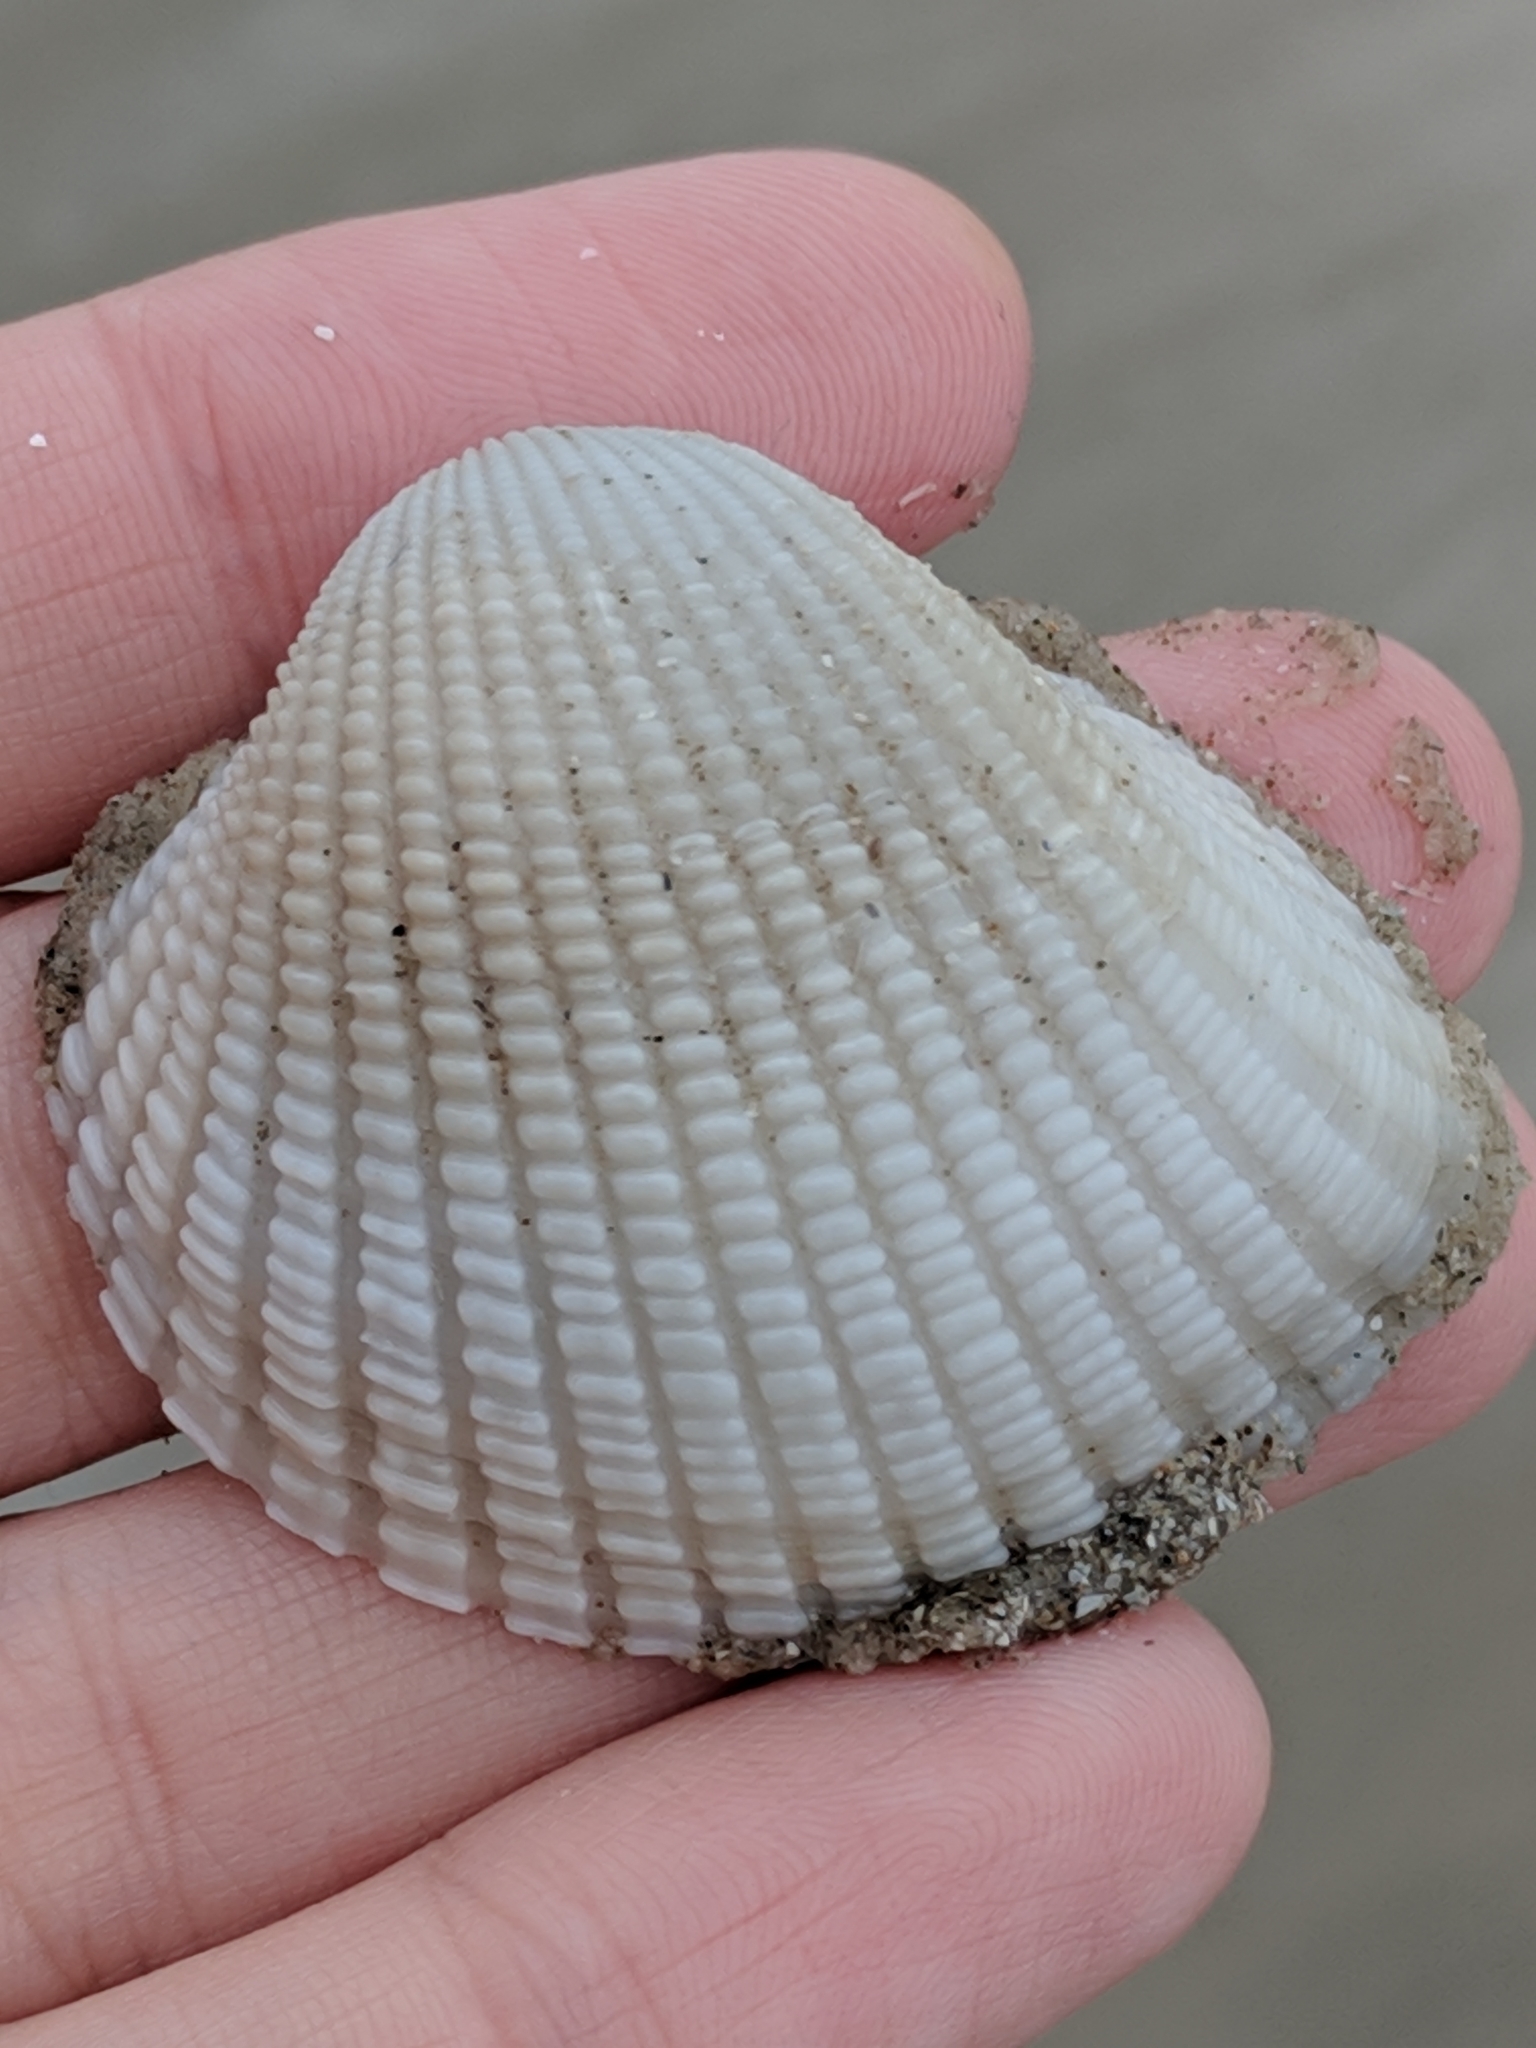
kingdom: Animalia
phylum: Mollusca
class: Bivalvia
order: Arcida
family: Arcidae
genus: Anadara
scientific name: Anadara brasiliana
